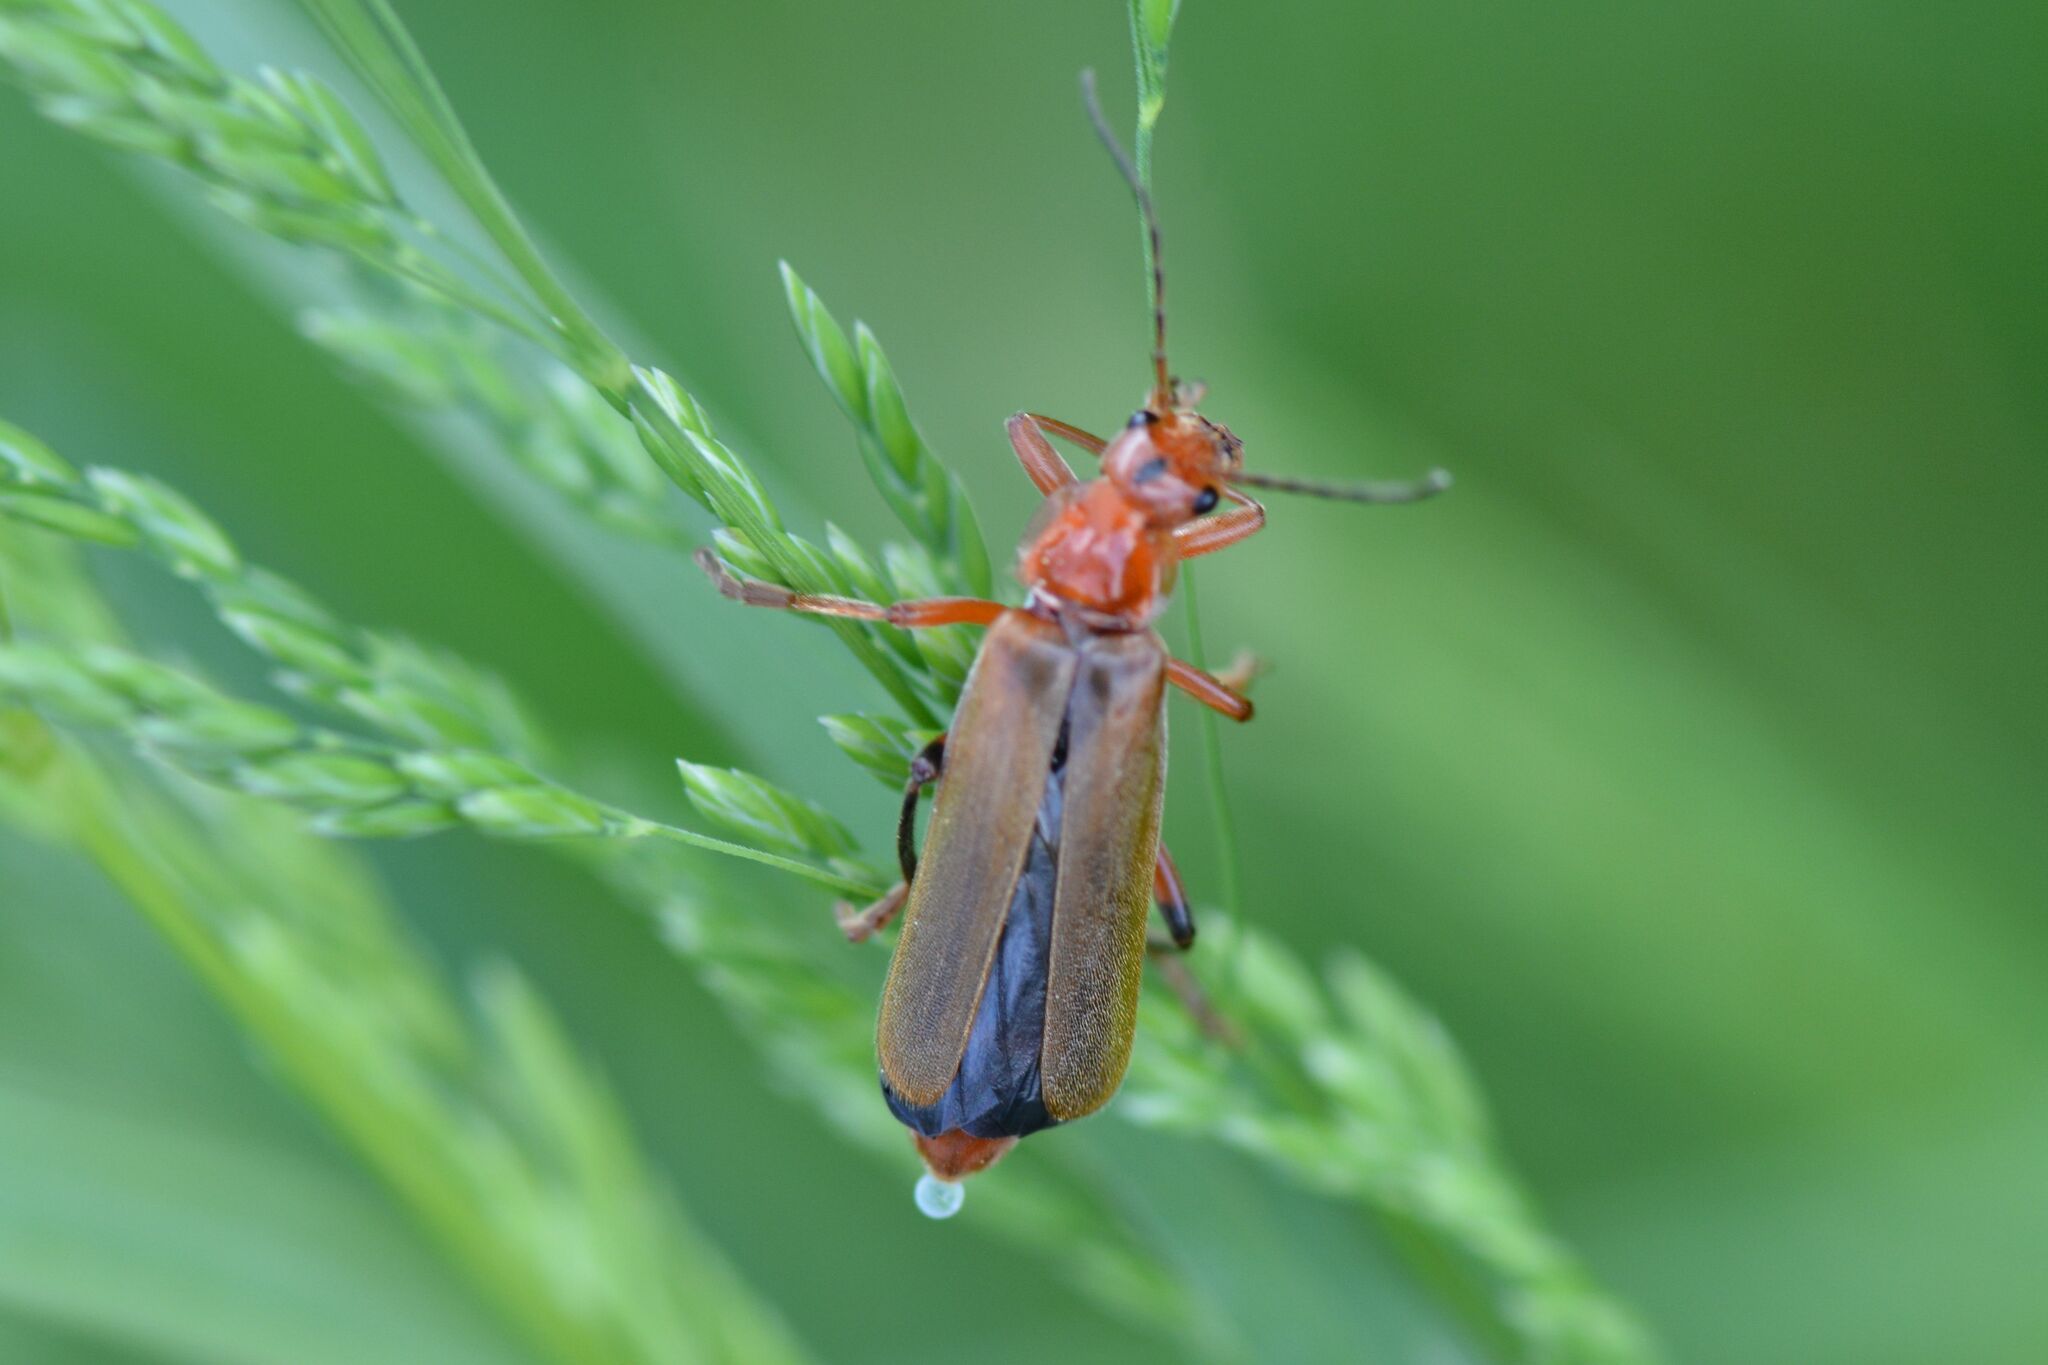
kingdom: Animalia
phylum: Arthropoda
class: Insecta
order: Coleoptera
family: Cantharidae
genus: Cantharis
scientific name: Cantharis livida
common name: Livid soldier beetle
